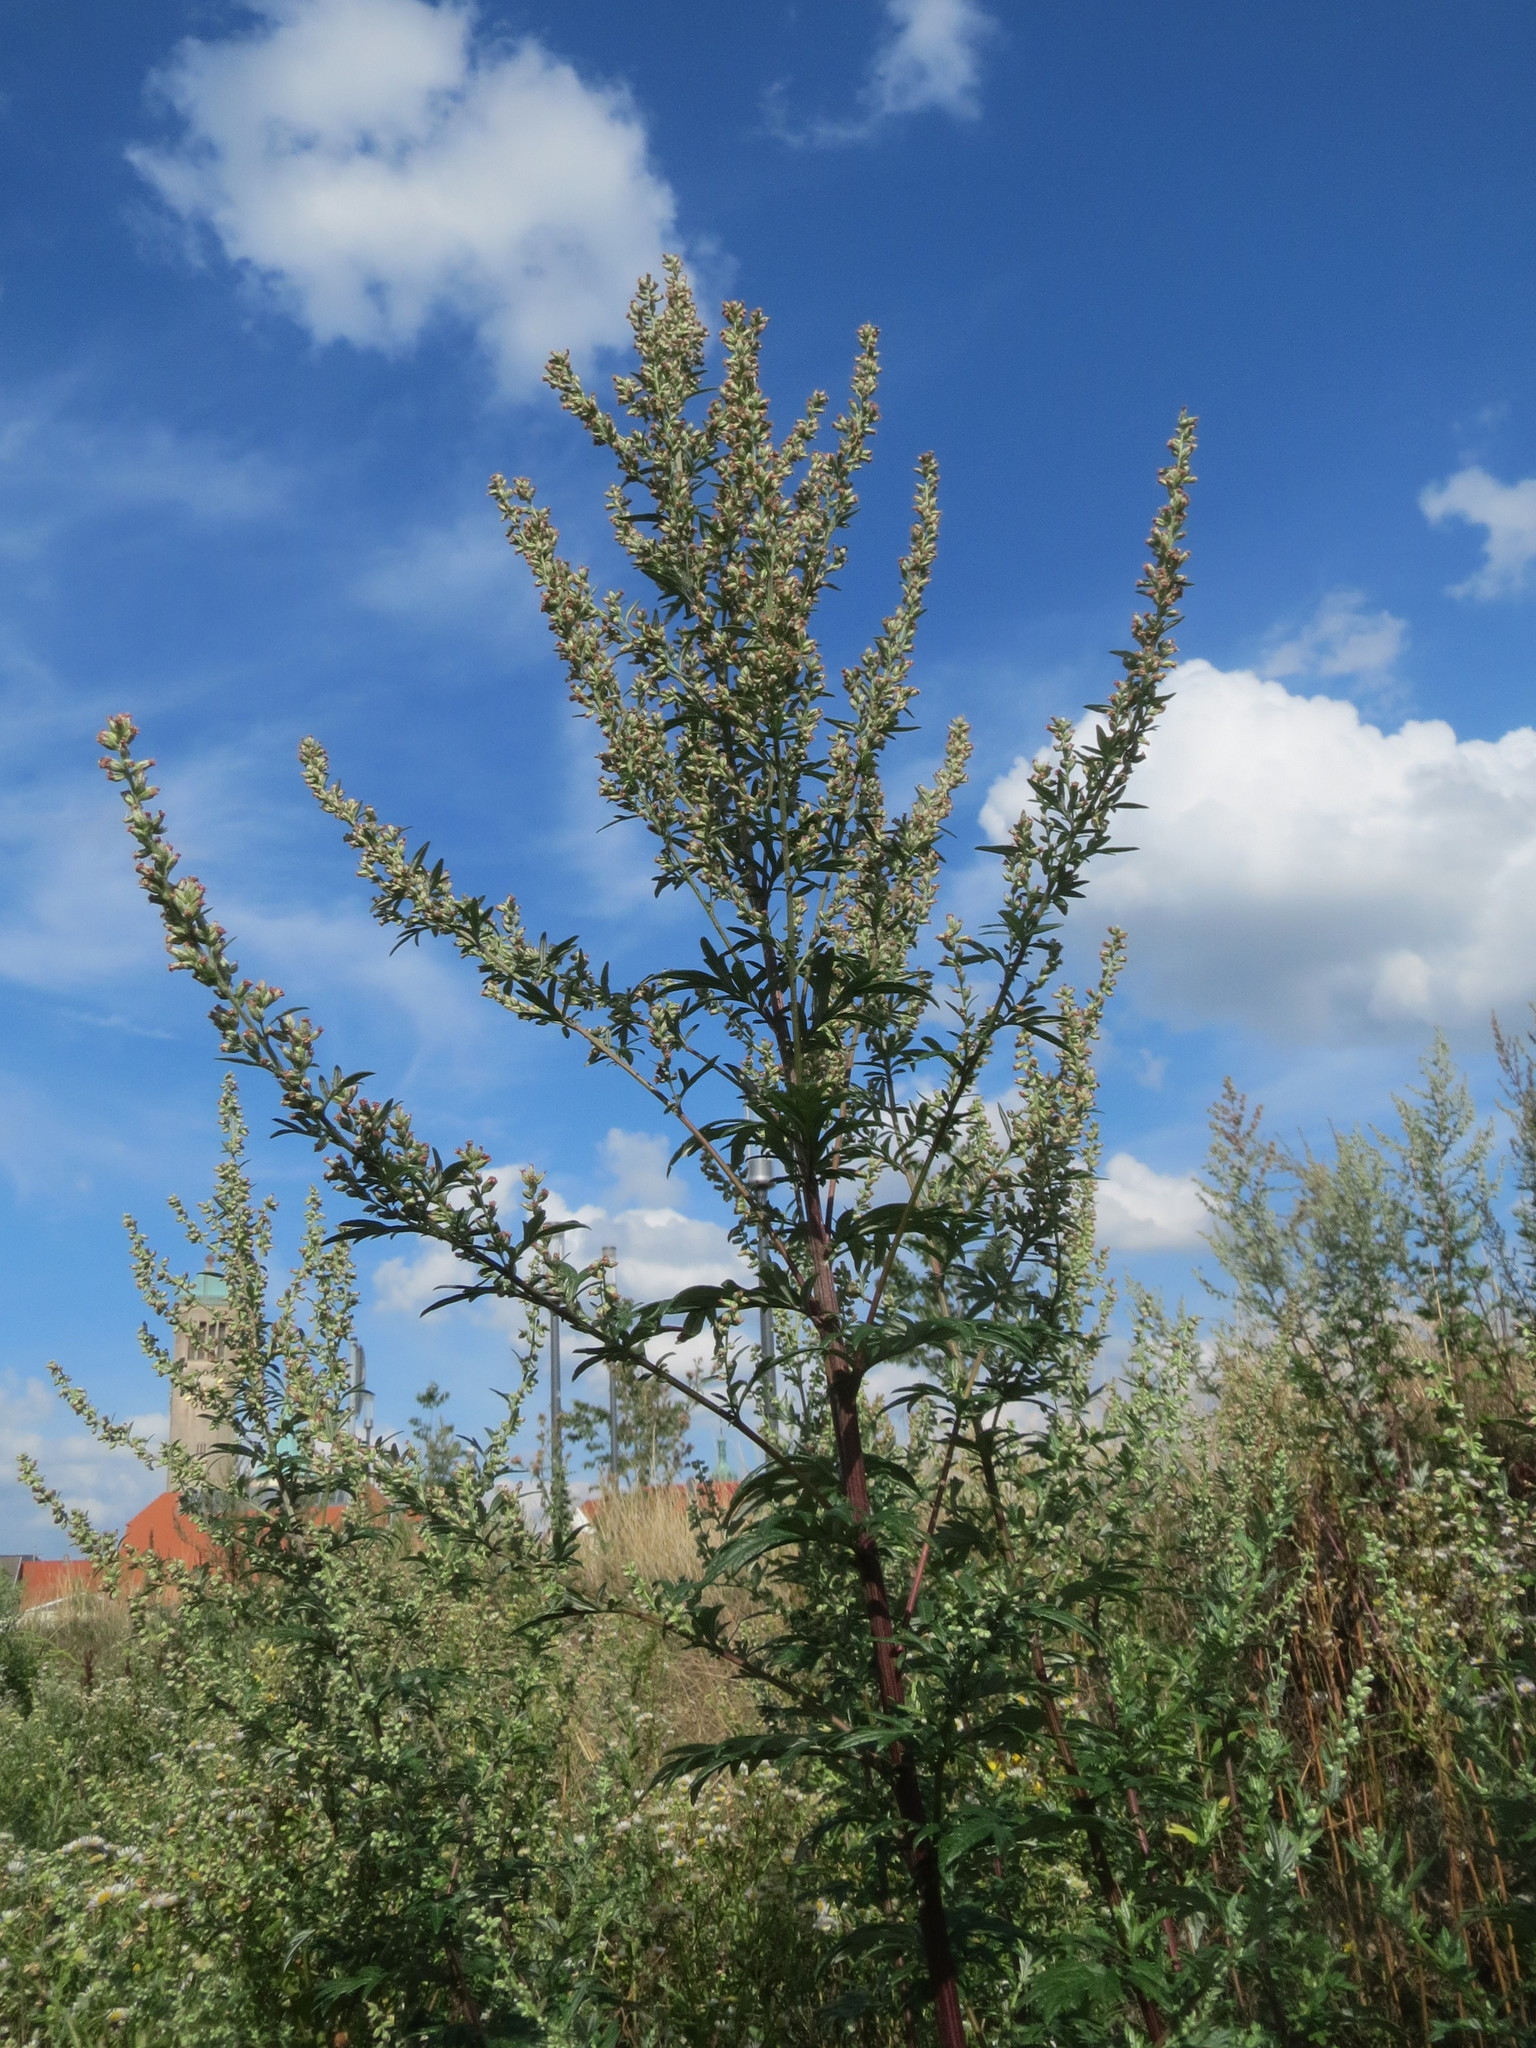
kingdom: Plantae
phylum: Tracheophyta
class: Magnoliopsida
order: Asterales
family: Asteraceae
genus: Artemisia
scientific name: Artemisia vulgaris
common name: Mugwort
